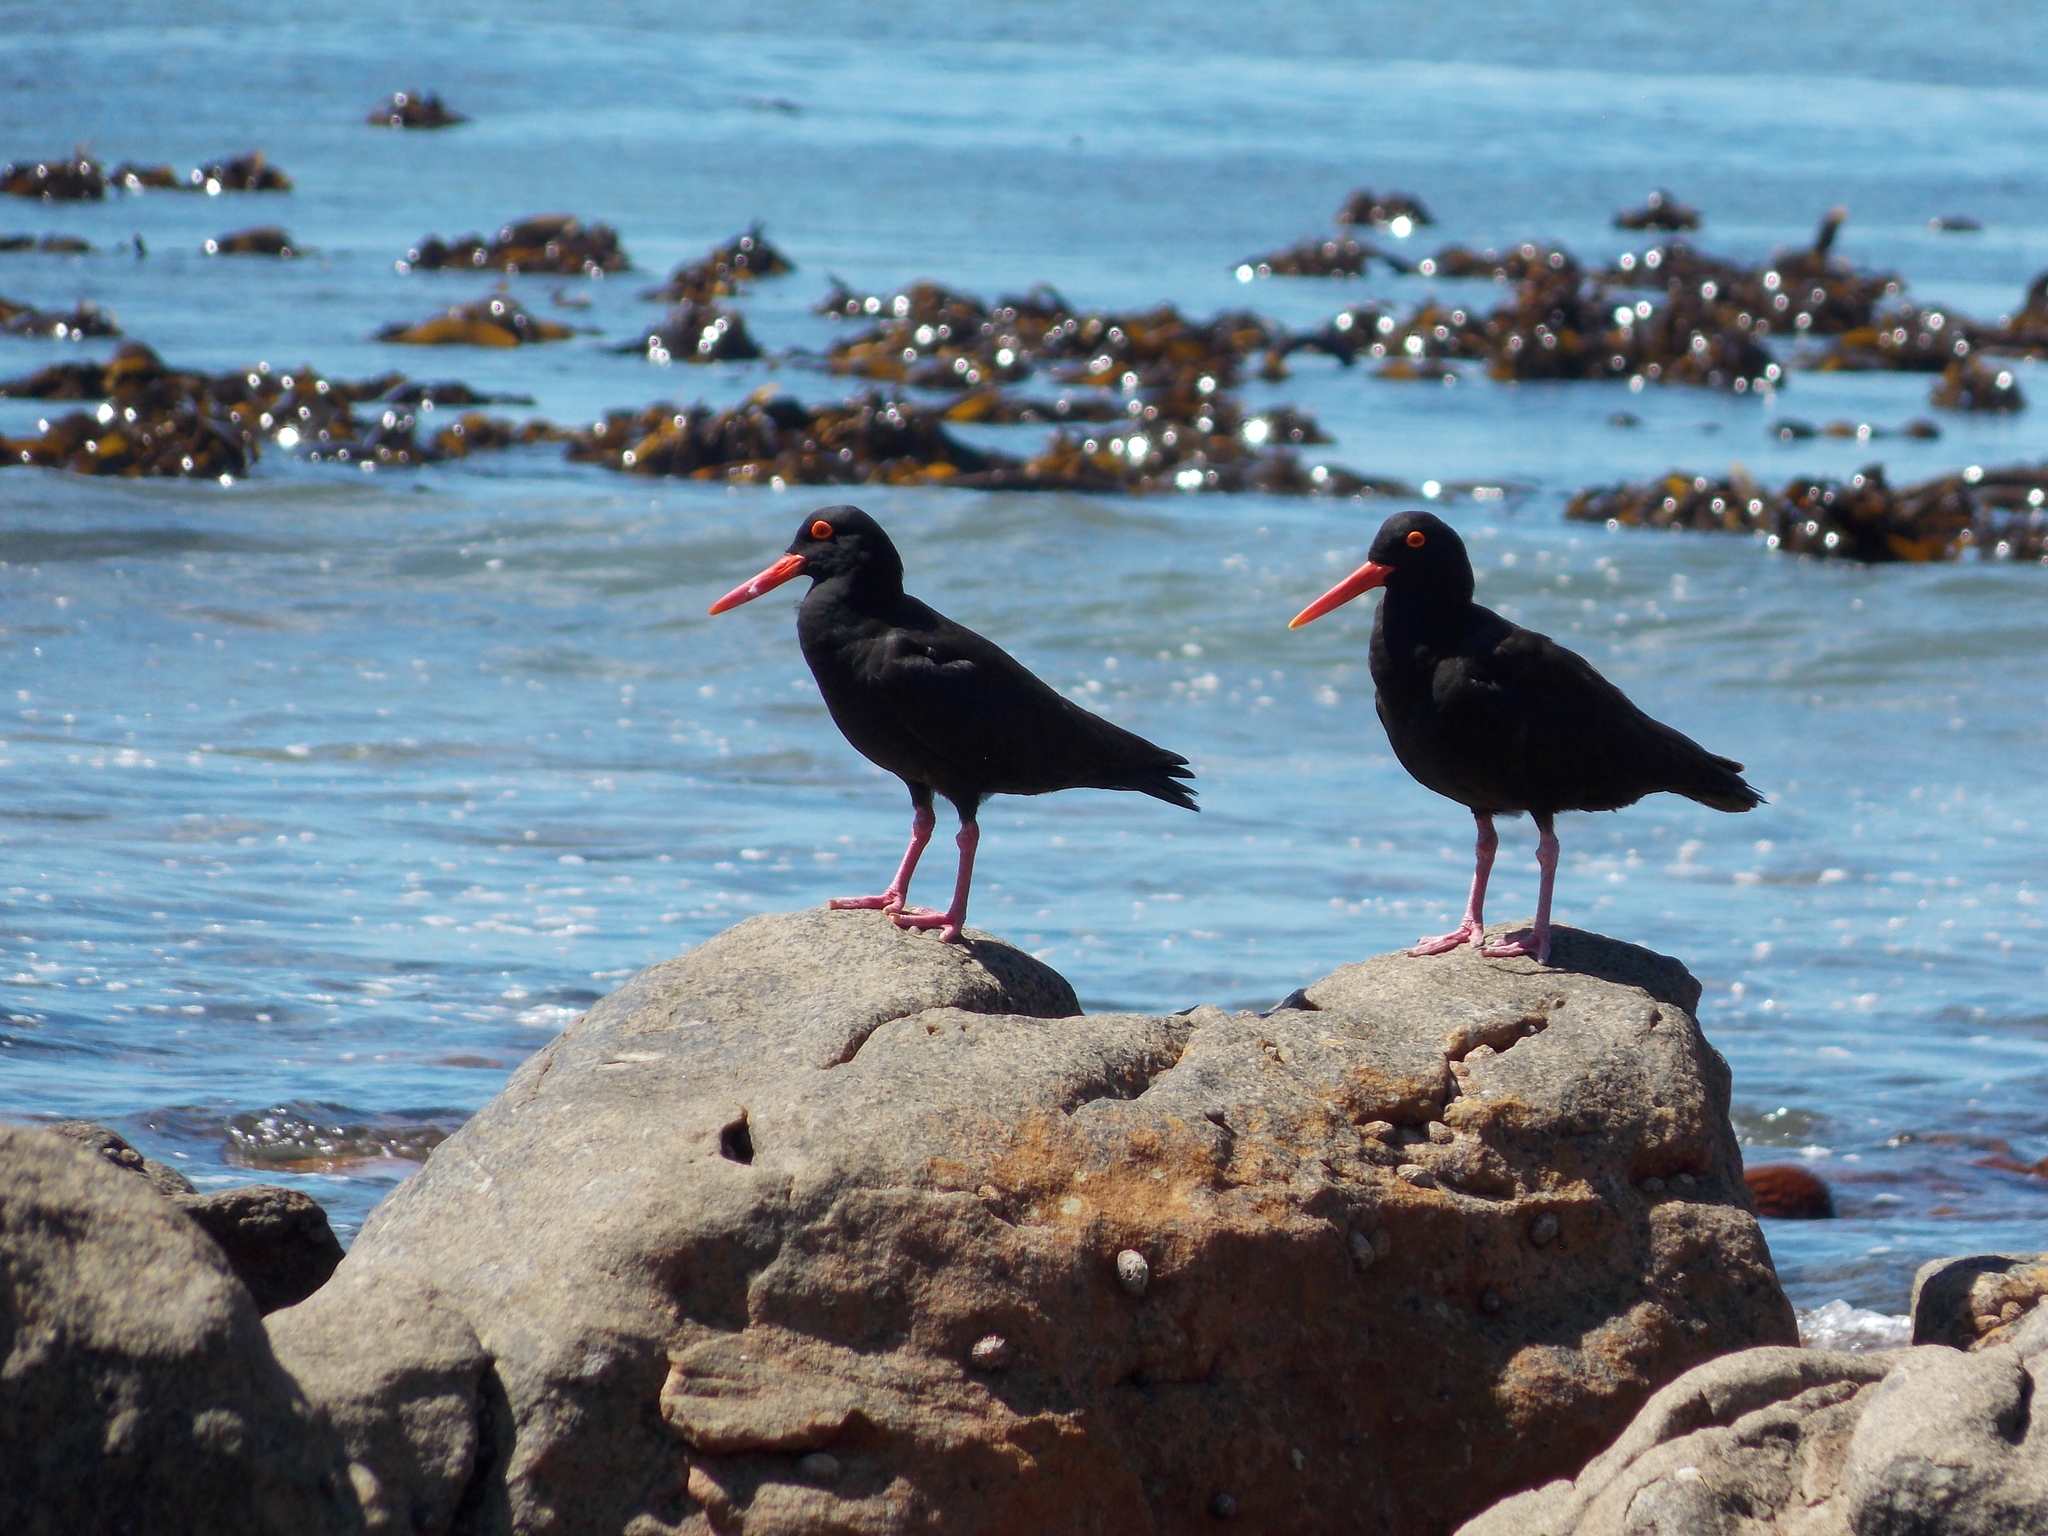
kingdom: Animalia
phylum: Chordata
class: Aves
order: Charadriiformes
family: Haematopodidae
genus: Haematopus
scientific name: Haematopus moquini
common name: African oystercatcher
